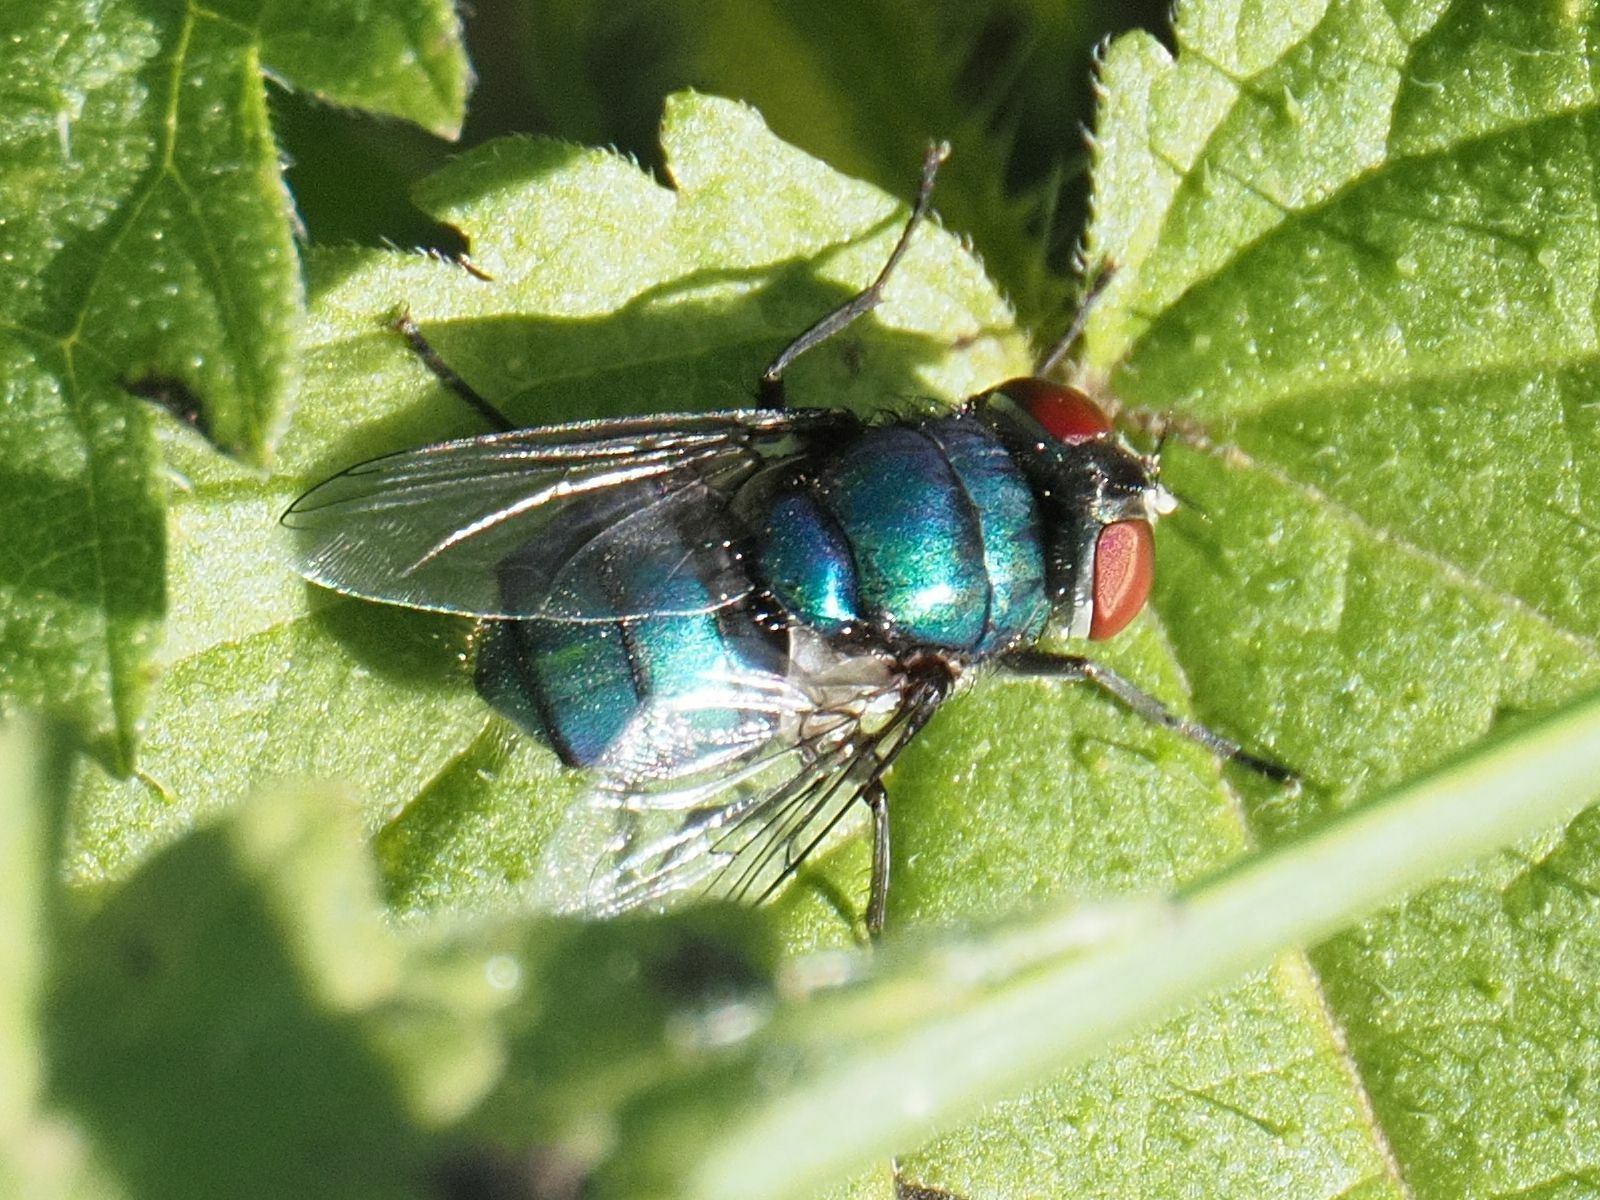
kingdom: Animalia
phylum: Arthropoda
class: Insecta
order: Diptera
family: Calliphoridae
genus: Chrysomya
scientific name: Chrysomya albiceps
